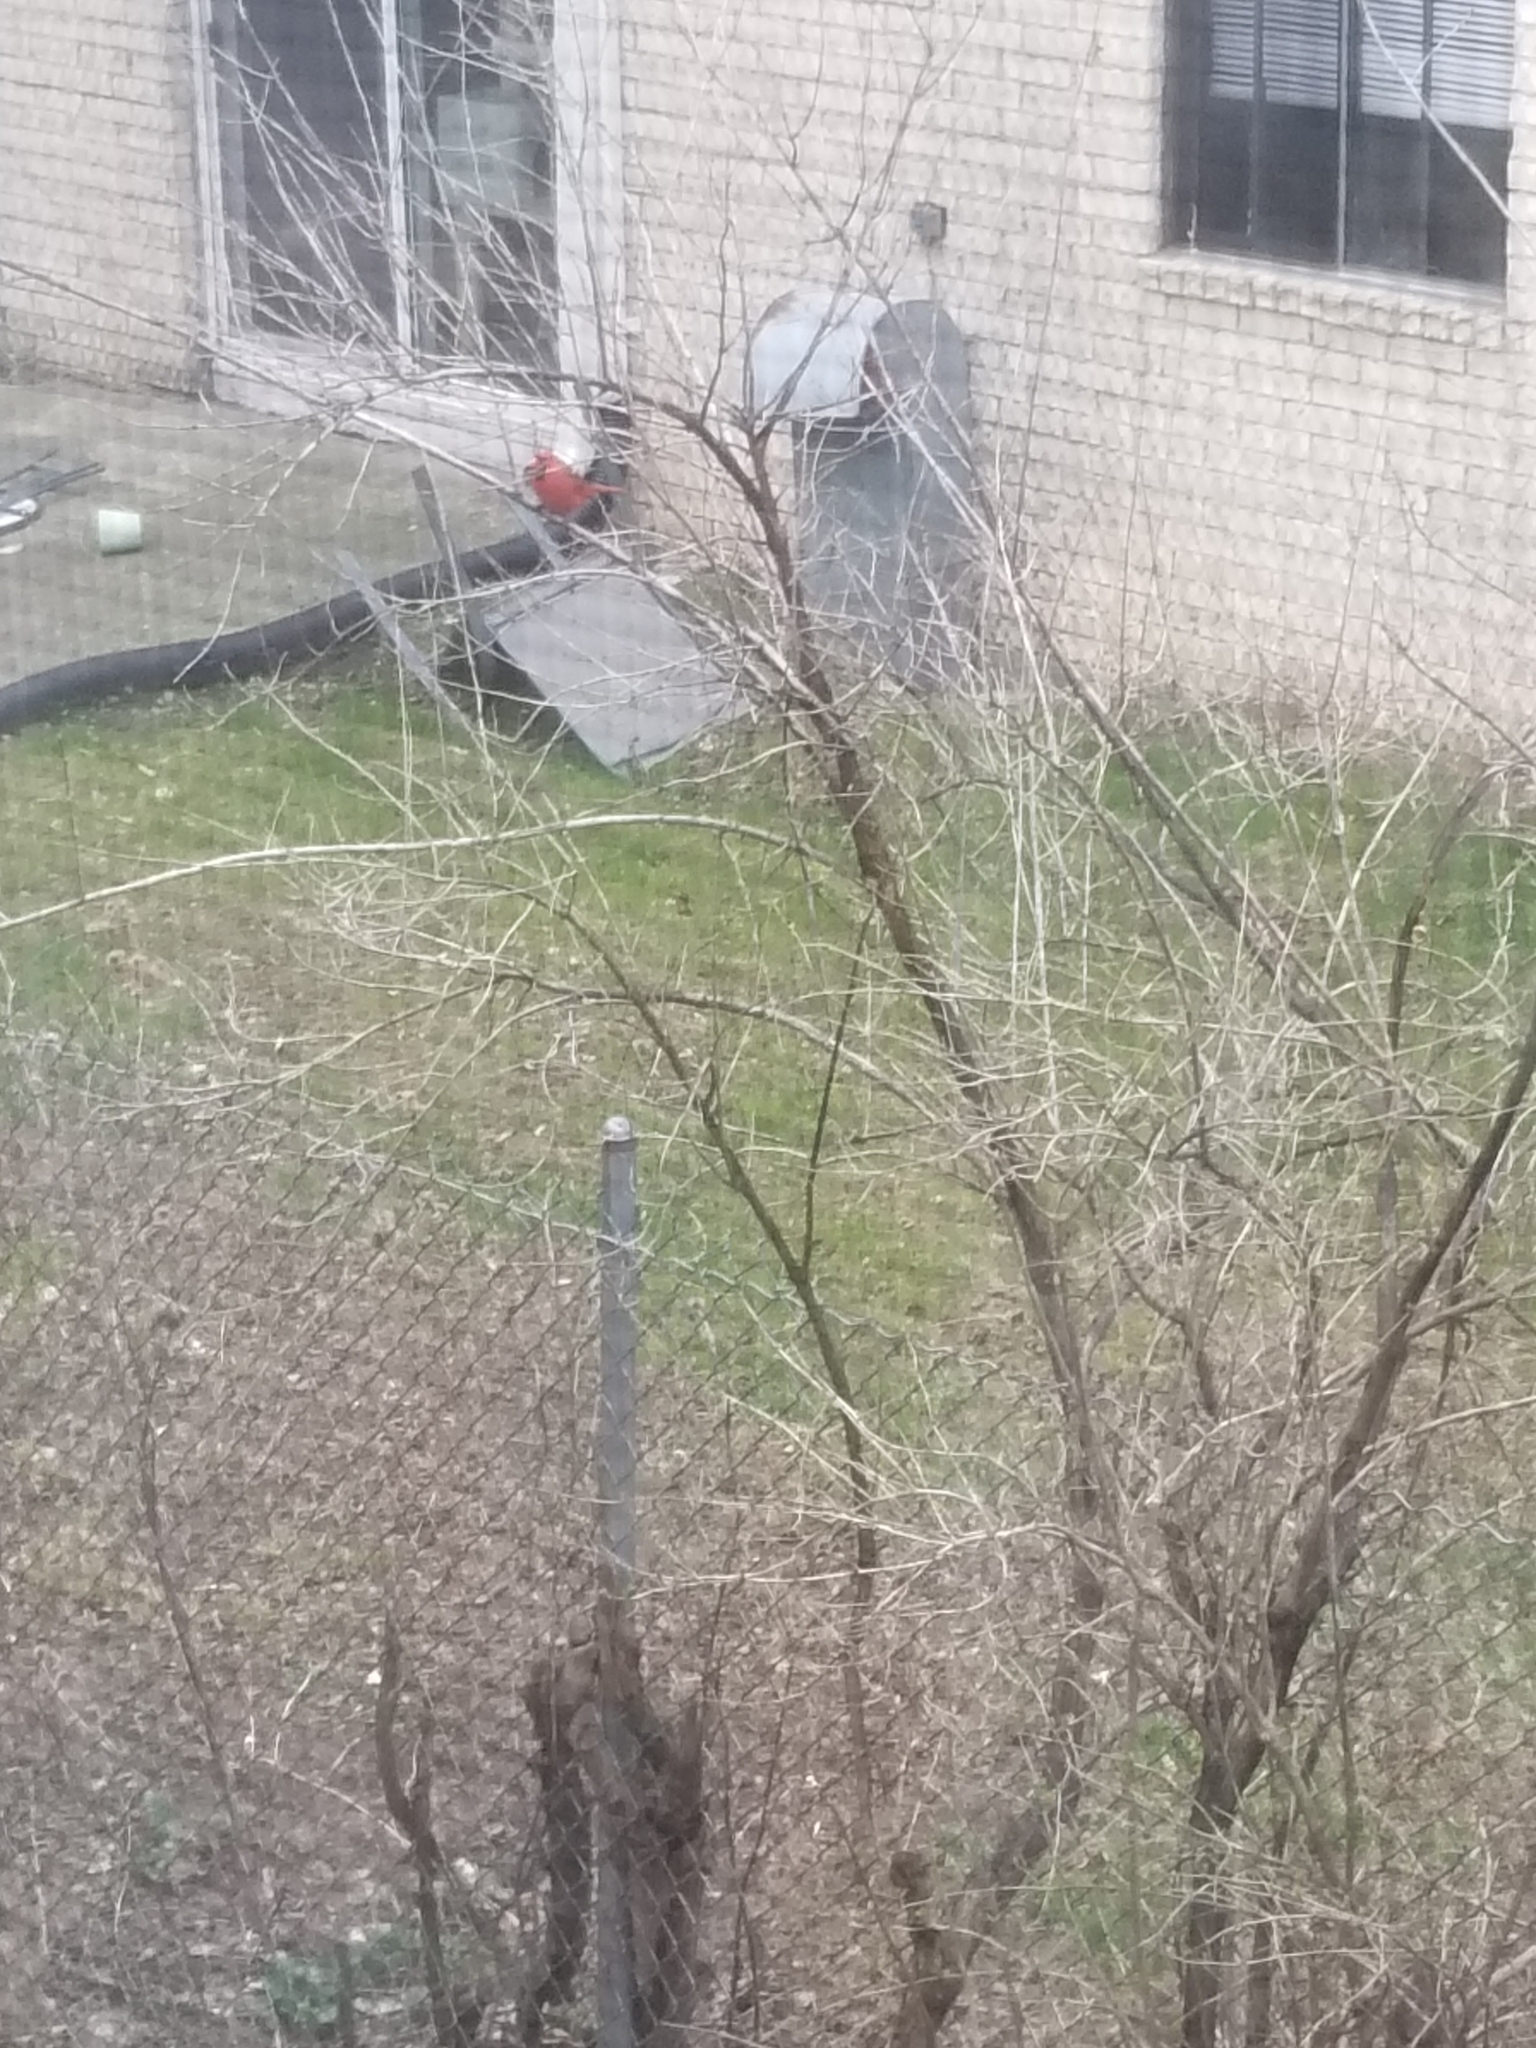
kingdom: Animalia
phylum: Chordata
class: Aves
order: Passeriformes
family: Cardinalidae
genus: Cardinalis
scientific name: Cardinalis cardinalis
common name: Northern cardinal
